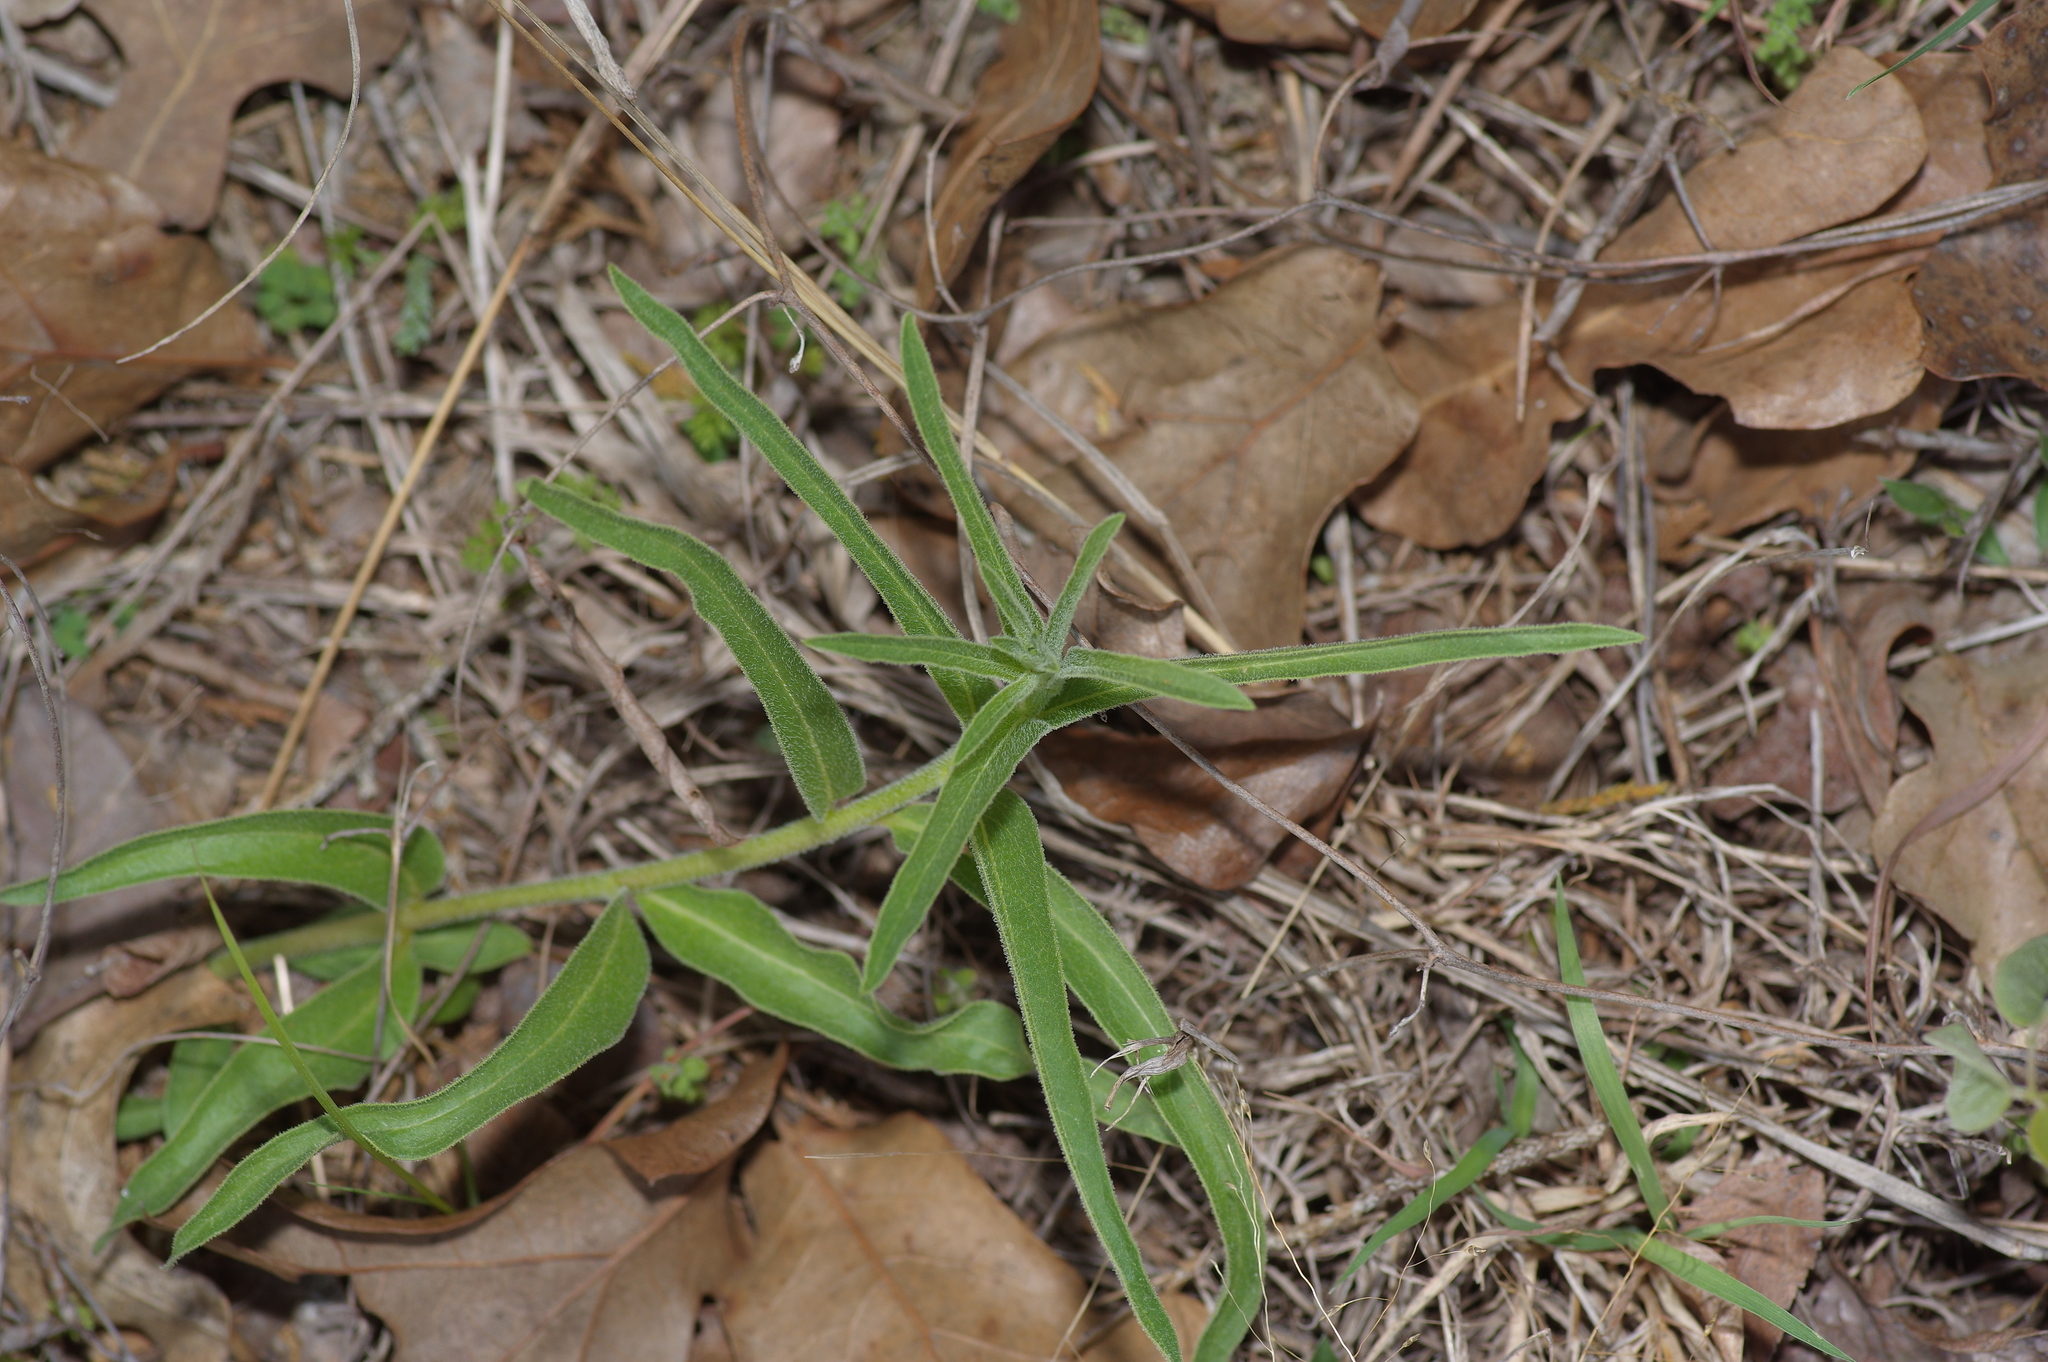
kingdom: Plantae
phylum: Tracheophyta
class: Magnoliopsida
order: Gentianales
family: Apocynaceae
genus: Asclepias
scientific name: Asclepias asperula
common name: Antelope horns
